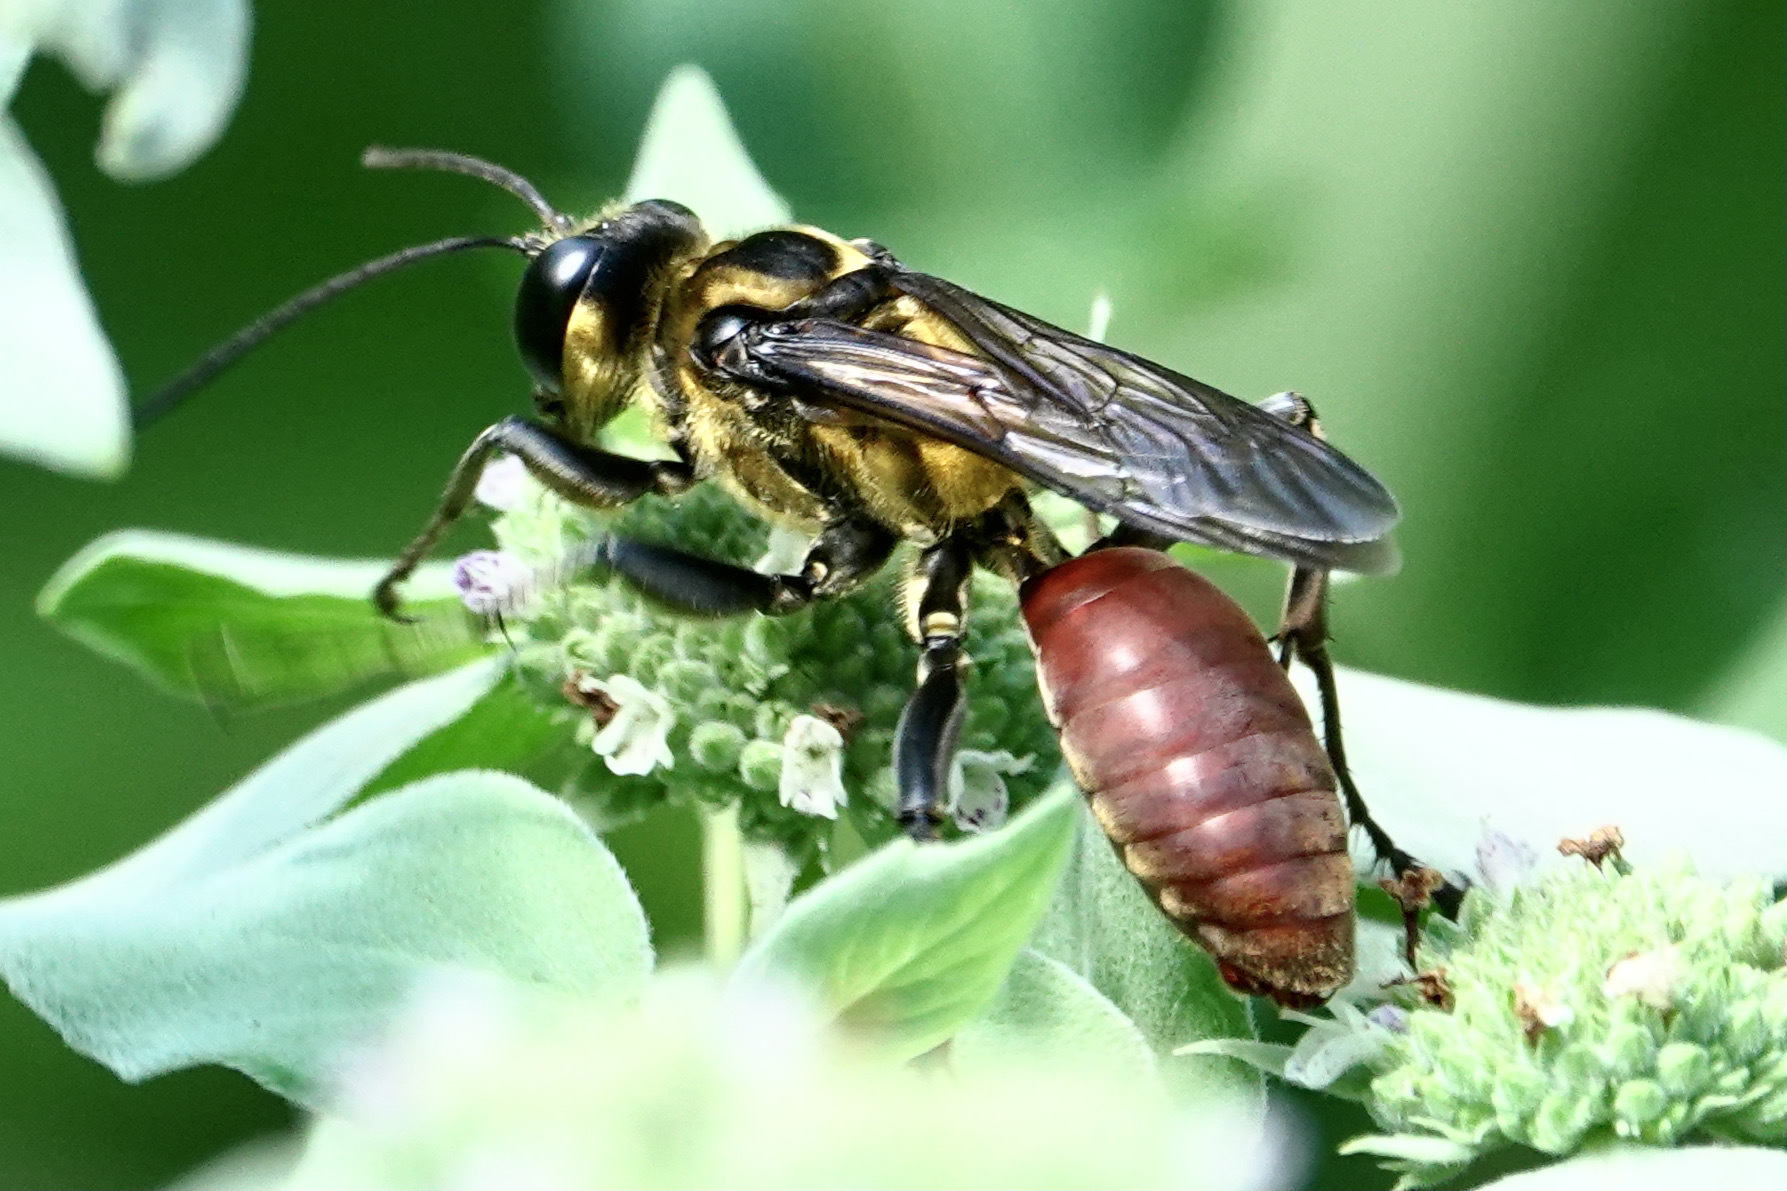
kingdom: Animalia
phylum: Arthropoda
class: Insecta
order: Hymenoptera
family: Sphecidae
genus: Sphex
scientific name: Sphex habenus
